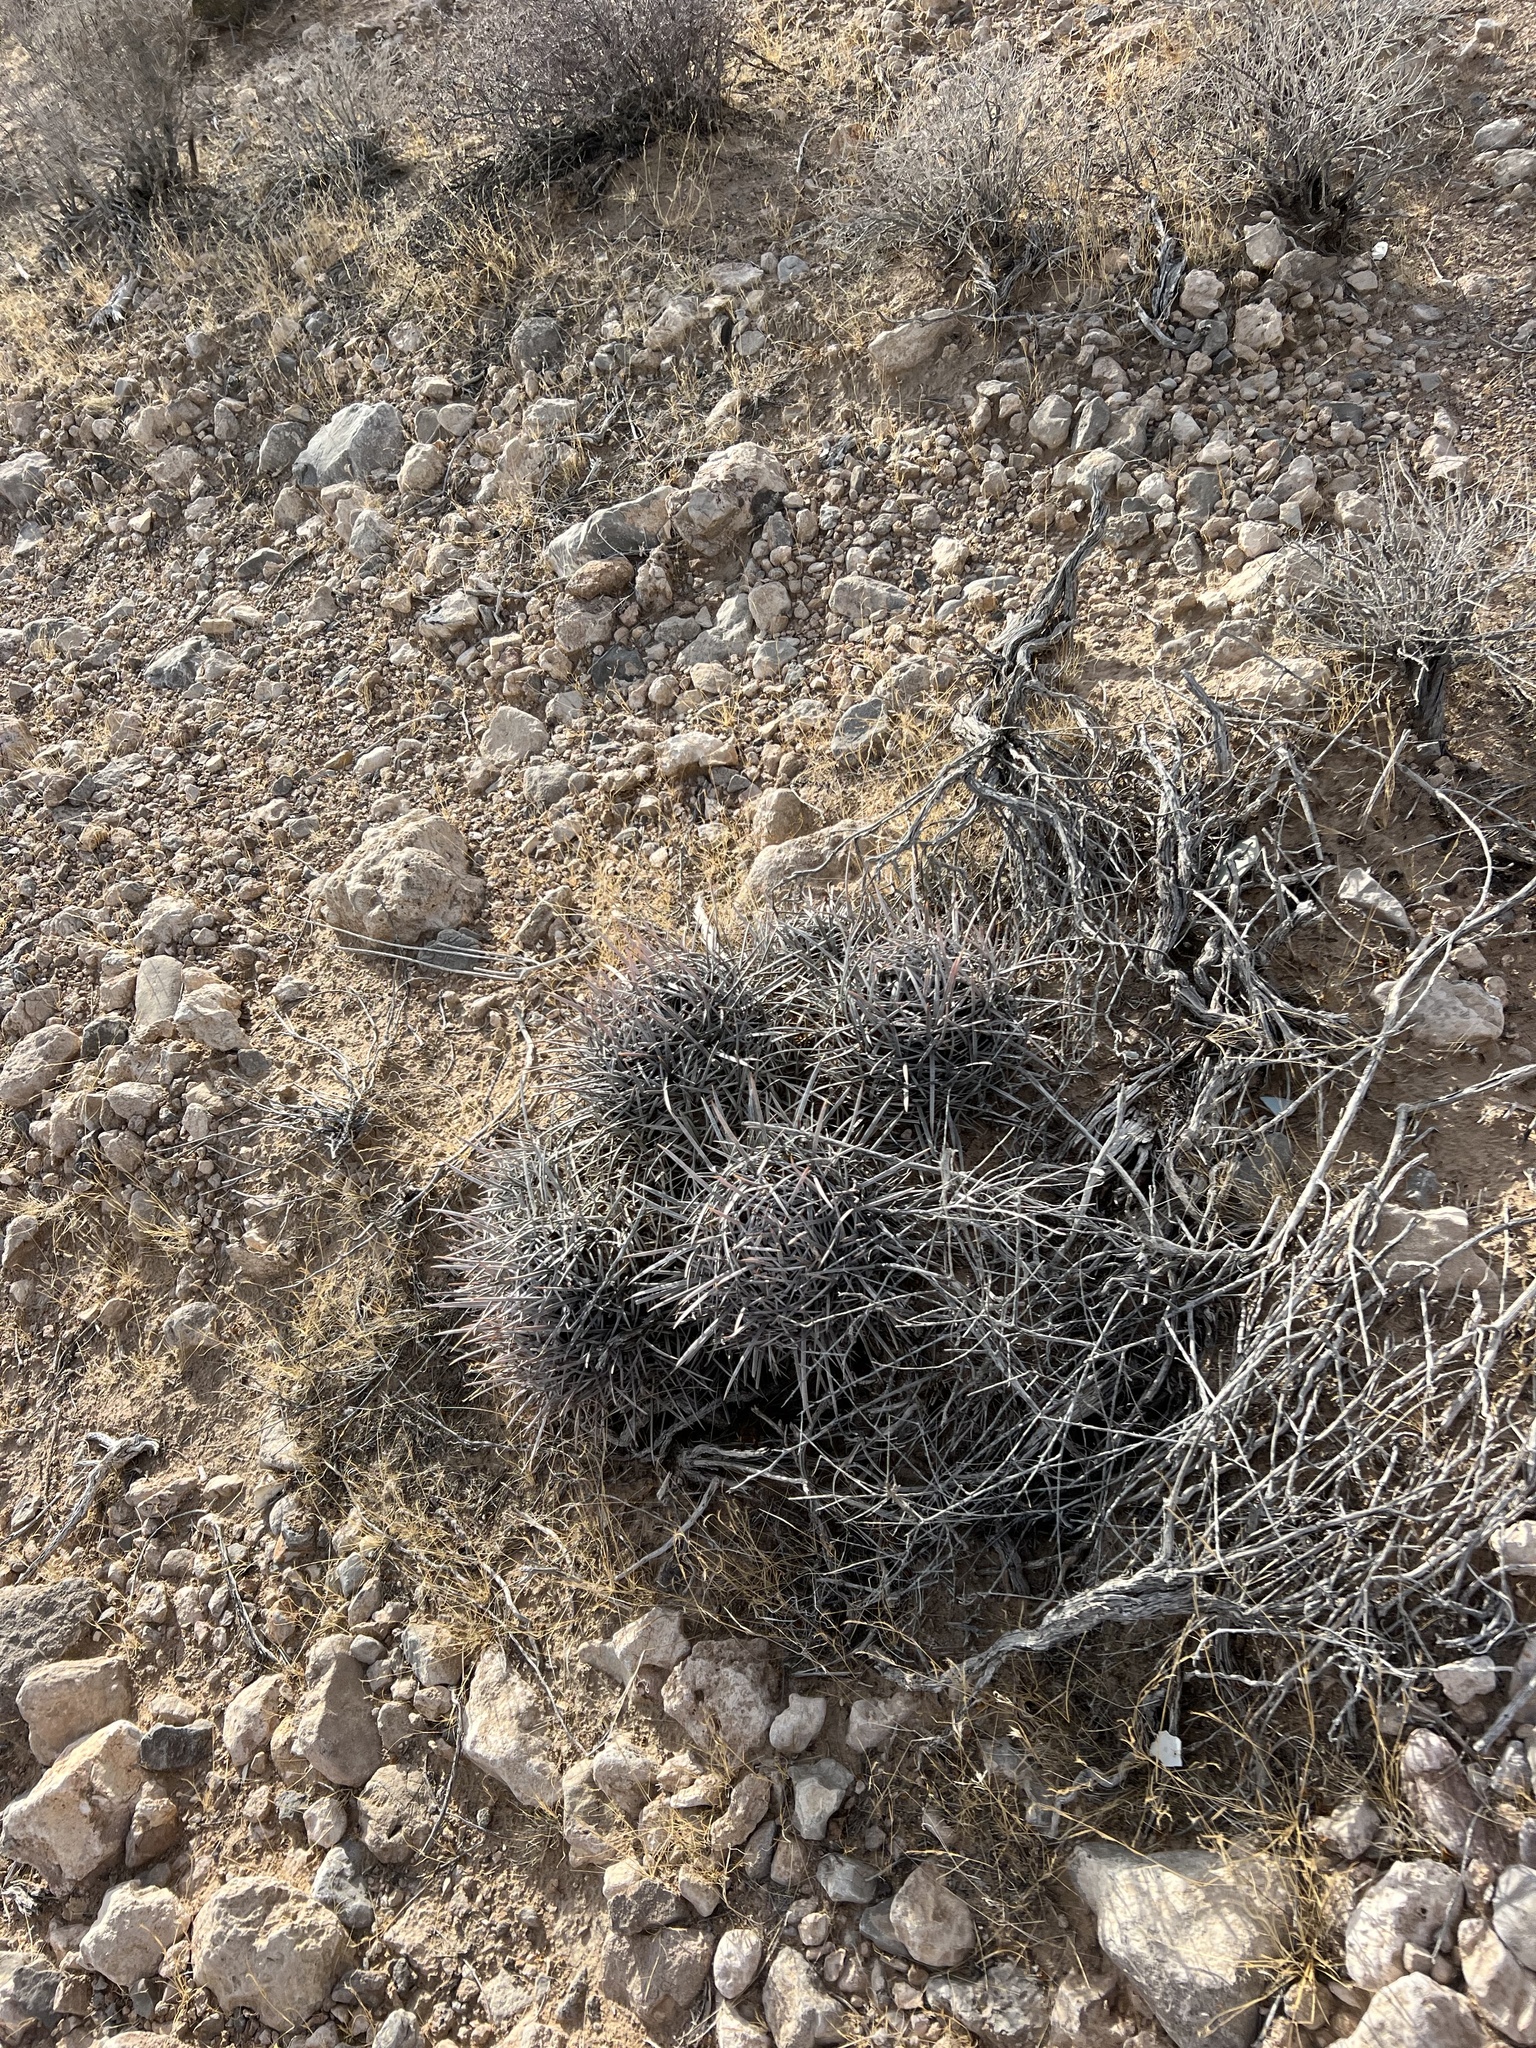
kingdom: Plantae
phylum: Tracheophyta
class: Magnoliopsida
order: Caryophyllales
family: Cactaceae
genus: Echinocactus
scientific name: Echinocactus polycephalus
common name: Cottontop cactus
